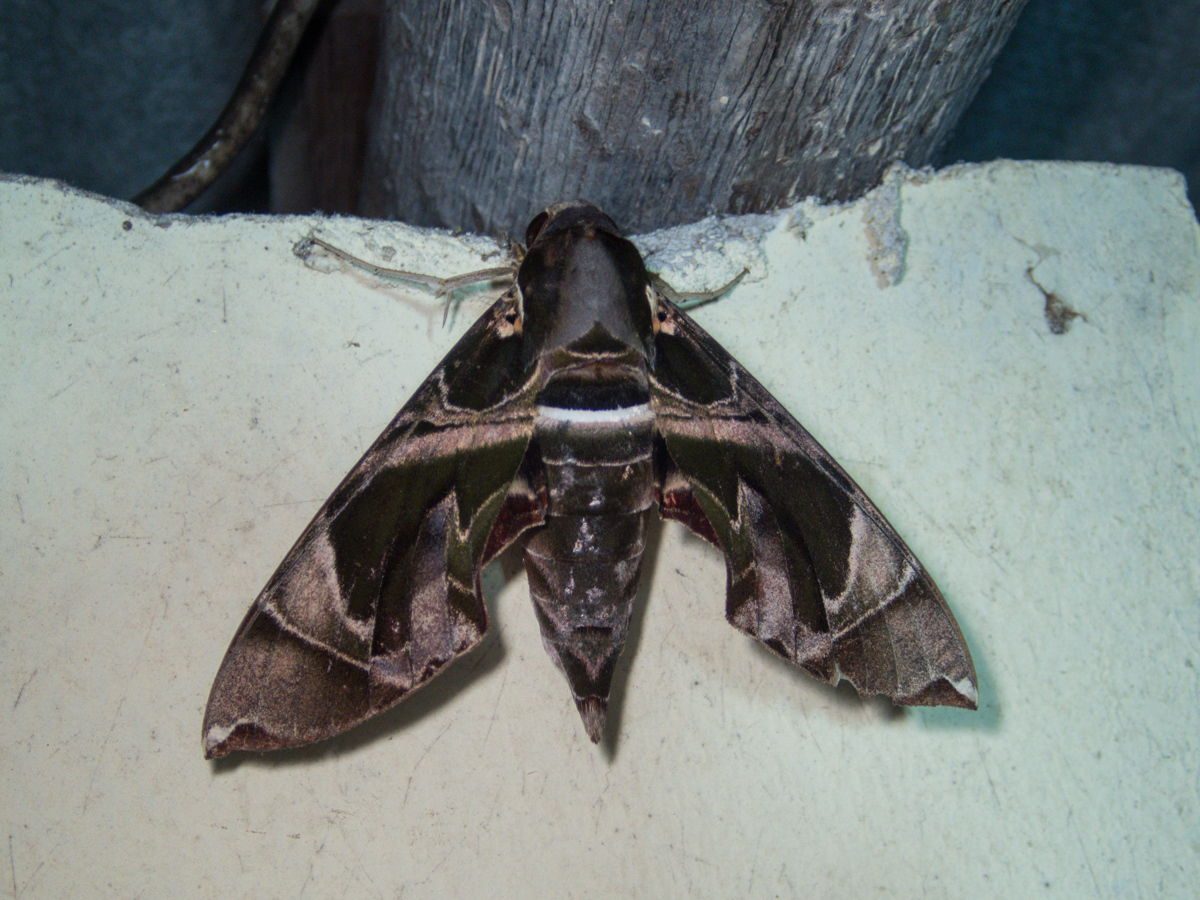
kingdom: Animalia
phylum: Arthropoda
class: Insecta
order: Lepidoptera
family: Sphingidae
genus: Daphnis
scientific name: Daphnis hypothous
